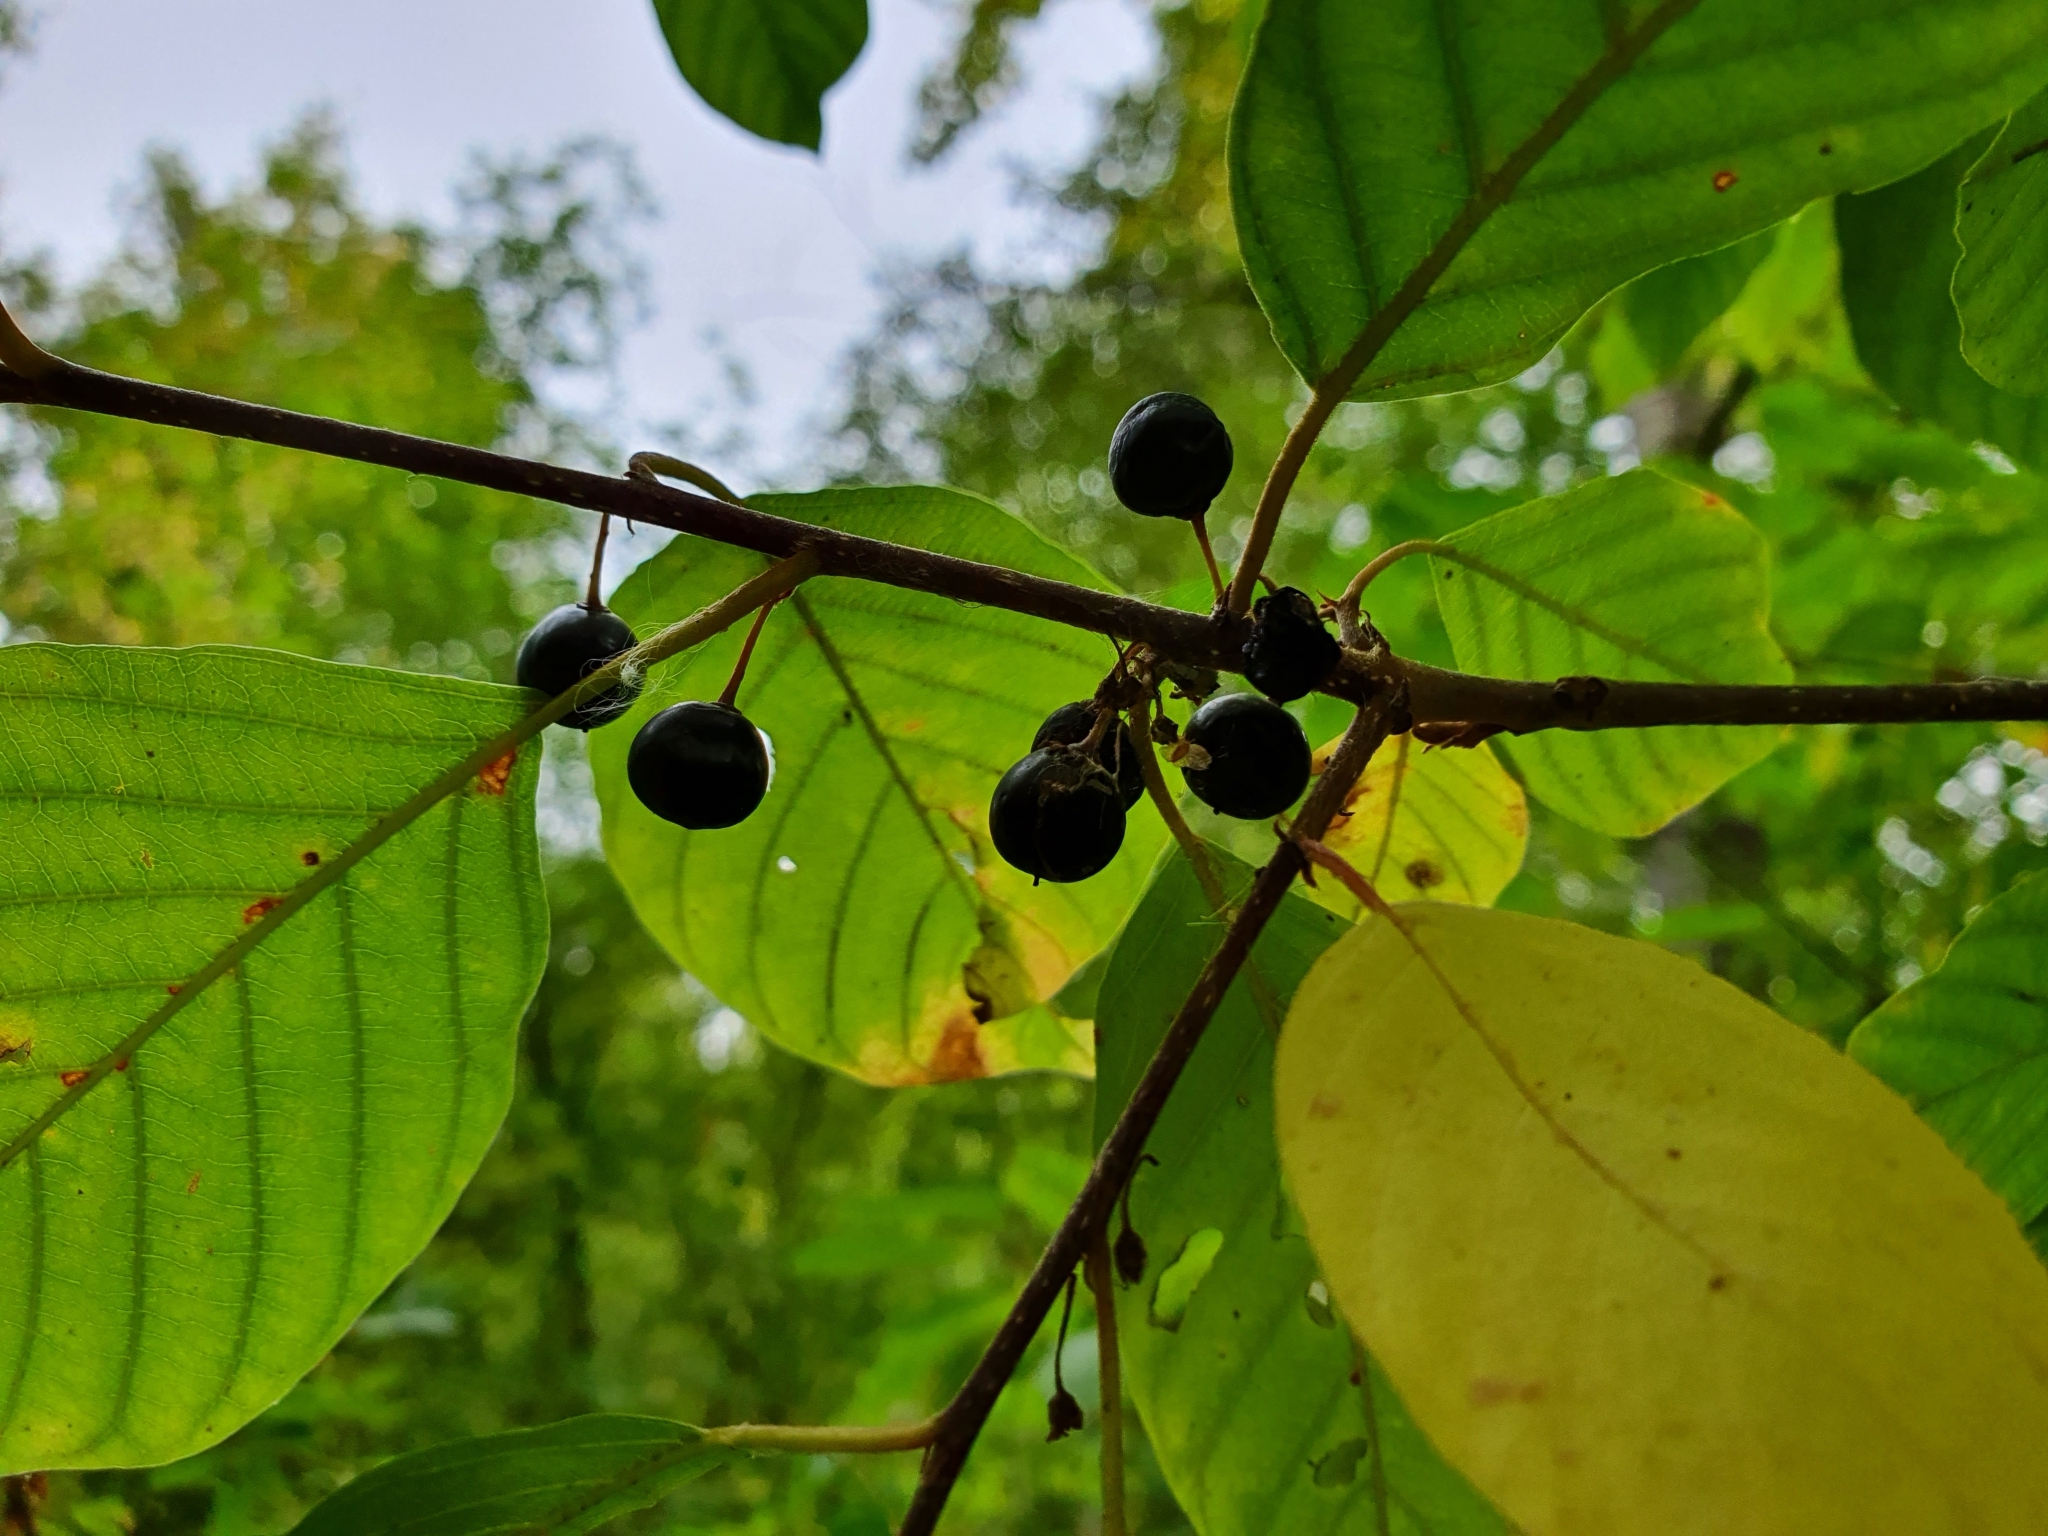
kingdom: Plantae
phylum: Tracheophyta
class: Magnoliopsida
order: Rosales
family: Rhamnaceae
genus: Frangula
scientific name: Frangula alnus
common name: Alder buckthorn
